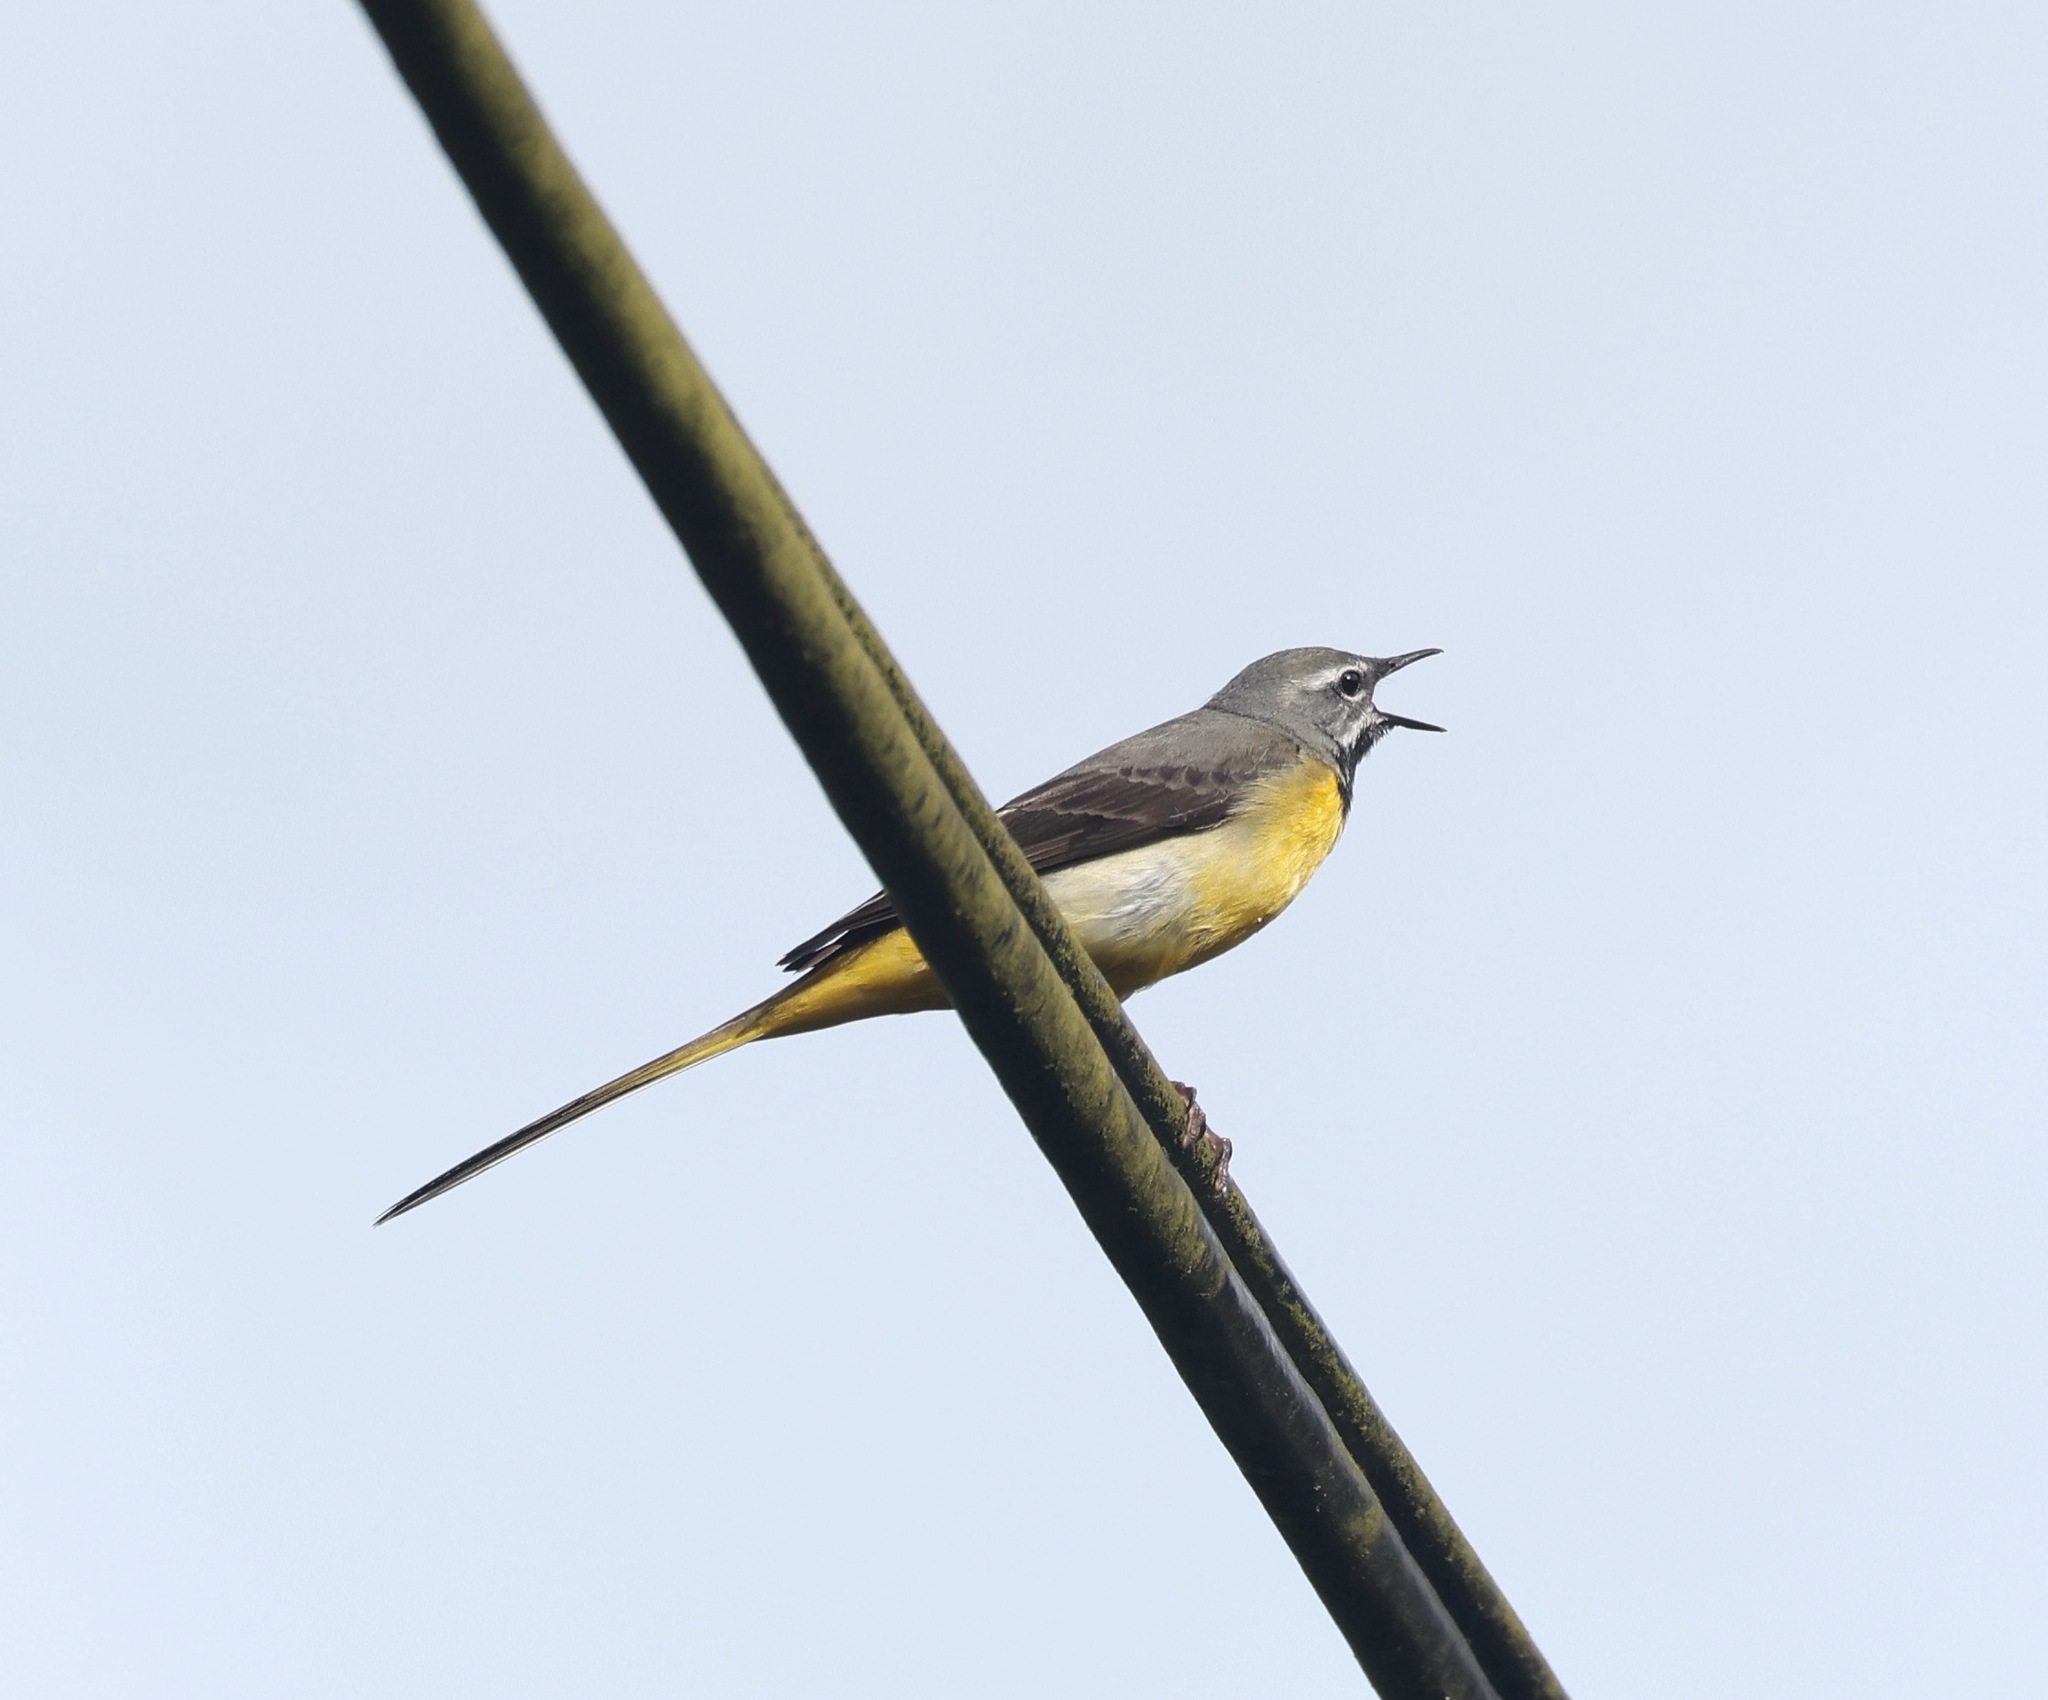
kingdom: Animalia
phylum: Chordata
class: Aves
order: Passeriformes
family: Motacillidae
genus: Motacilla
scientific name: Motacilla cinerea
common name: Grey wagtail
